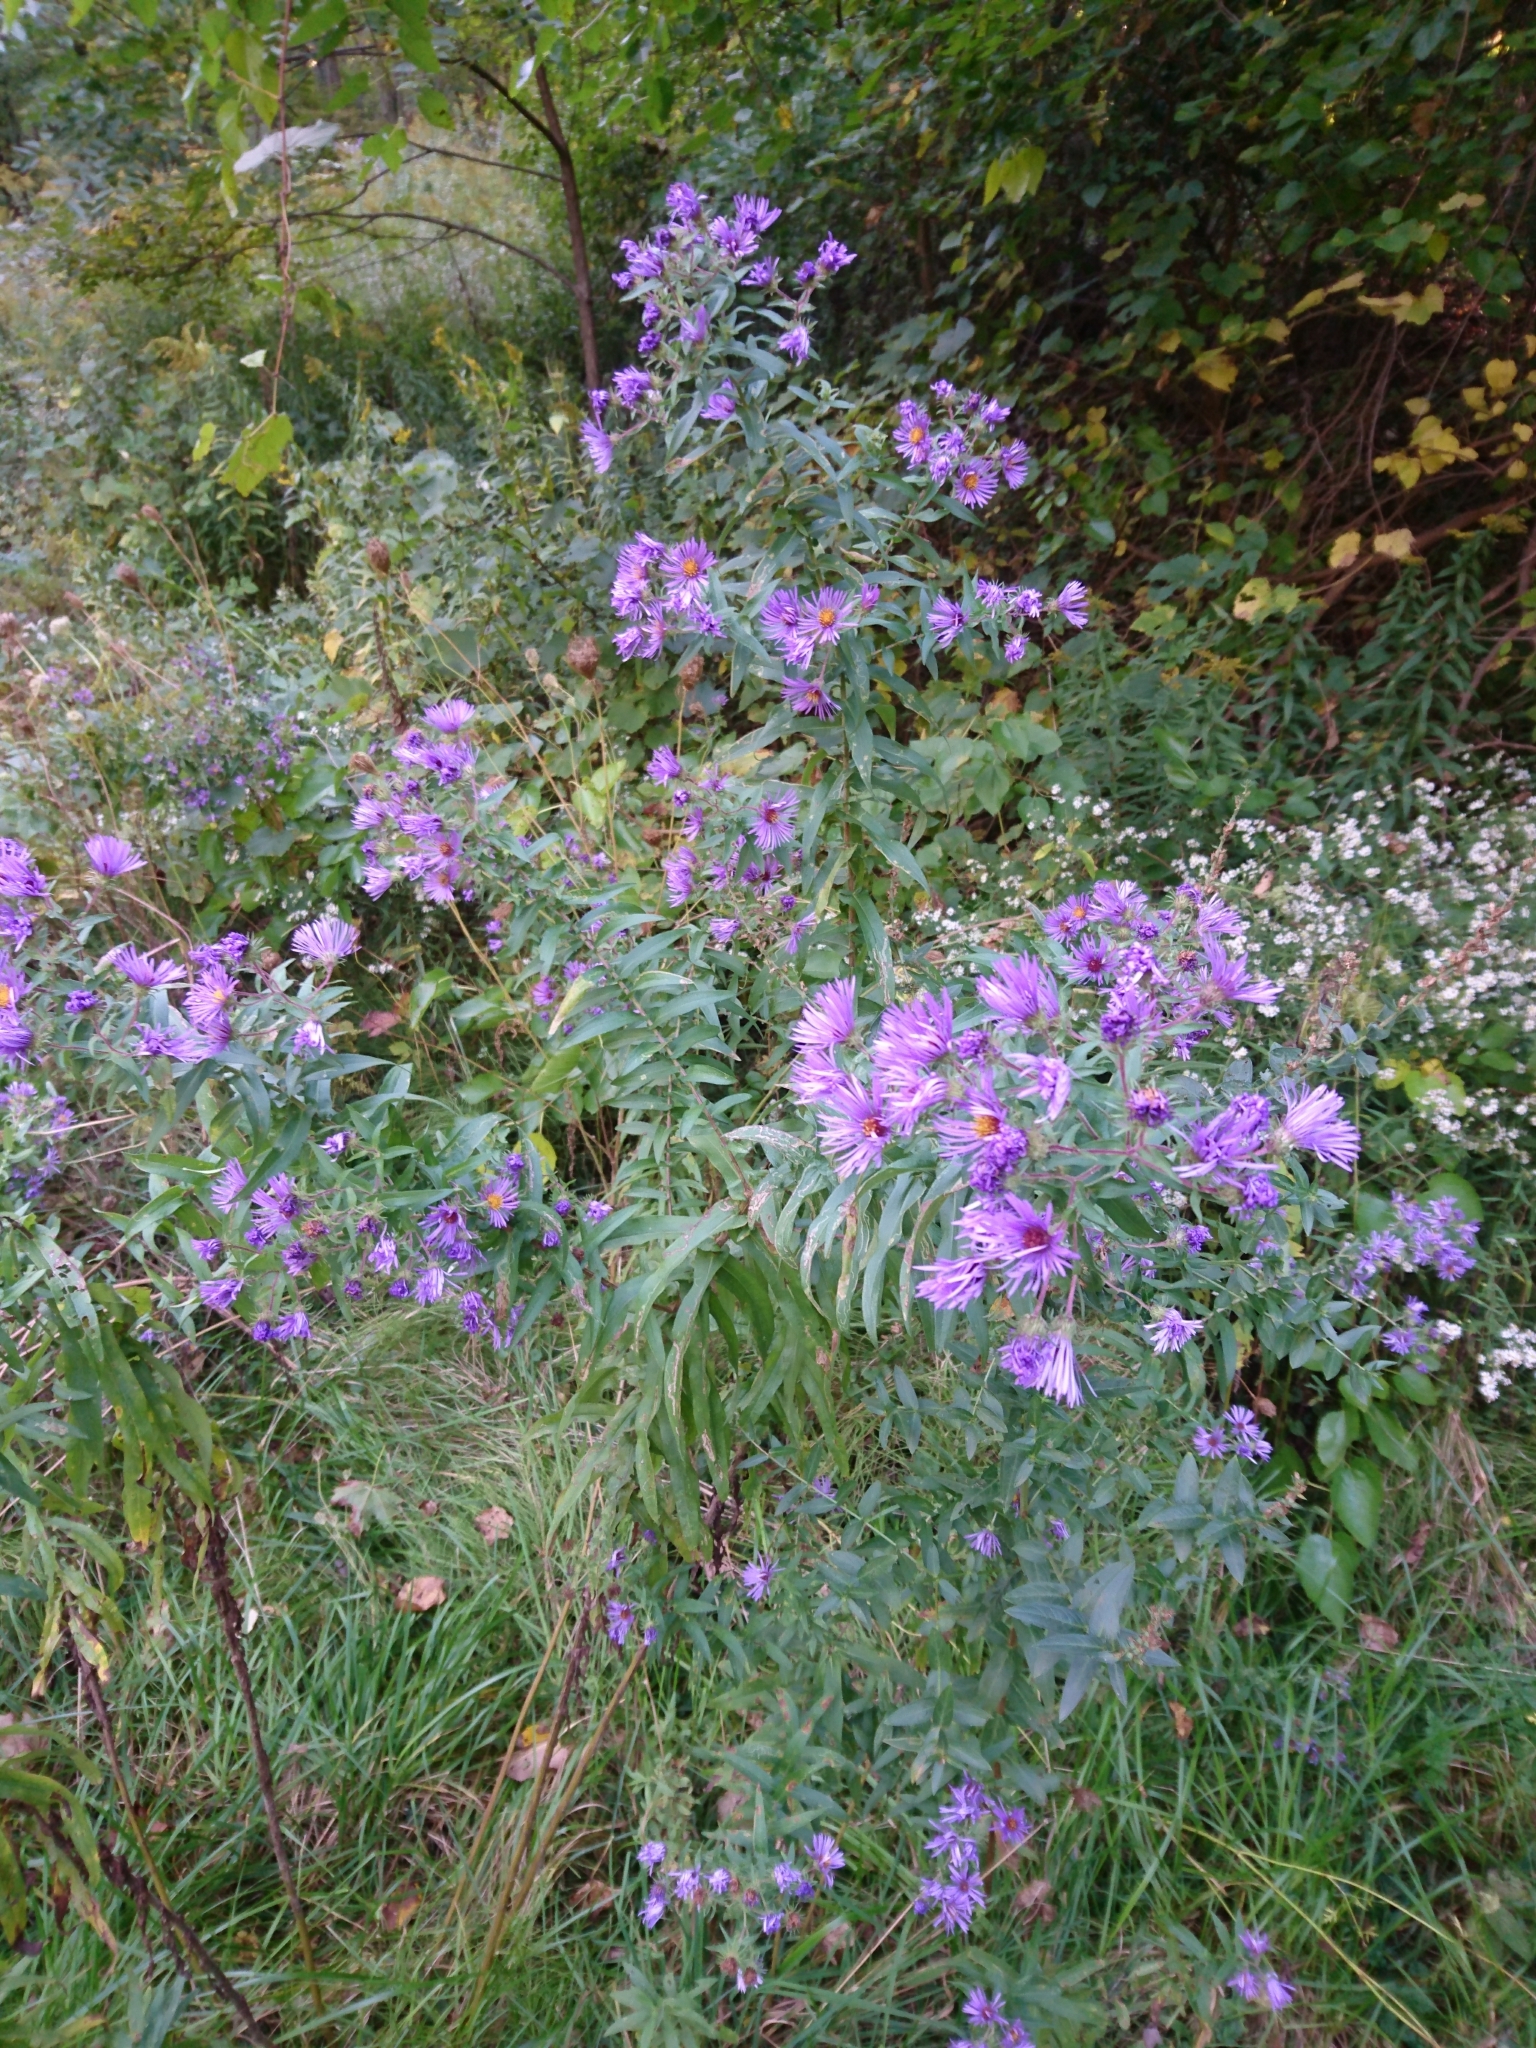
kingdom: Plantae
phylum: Tracheophyta
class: Magnoliopsida
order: Asterales
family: Asteraceae
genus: Symphyotrichum
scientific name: Symphyotrichum novae-angliae
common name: Michaelmas daisy
